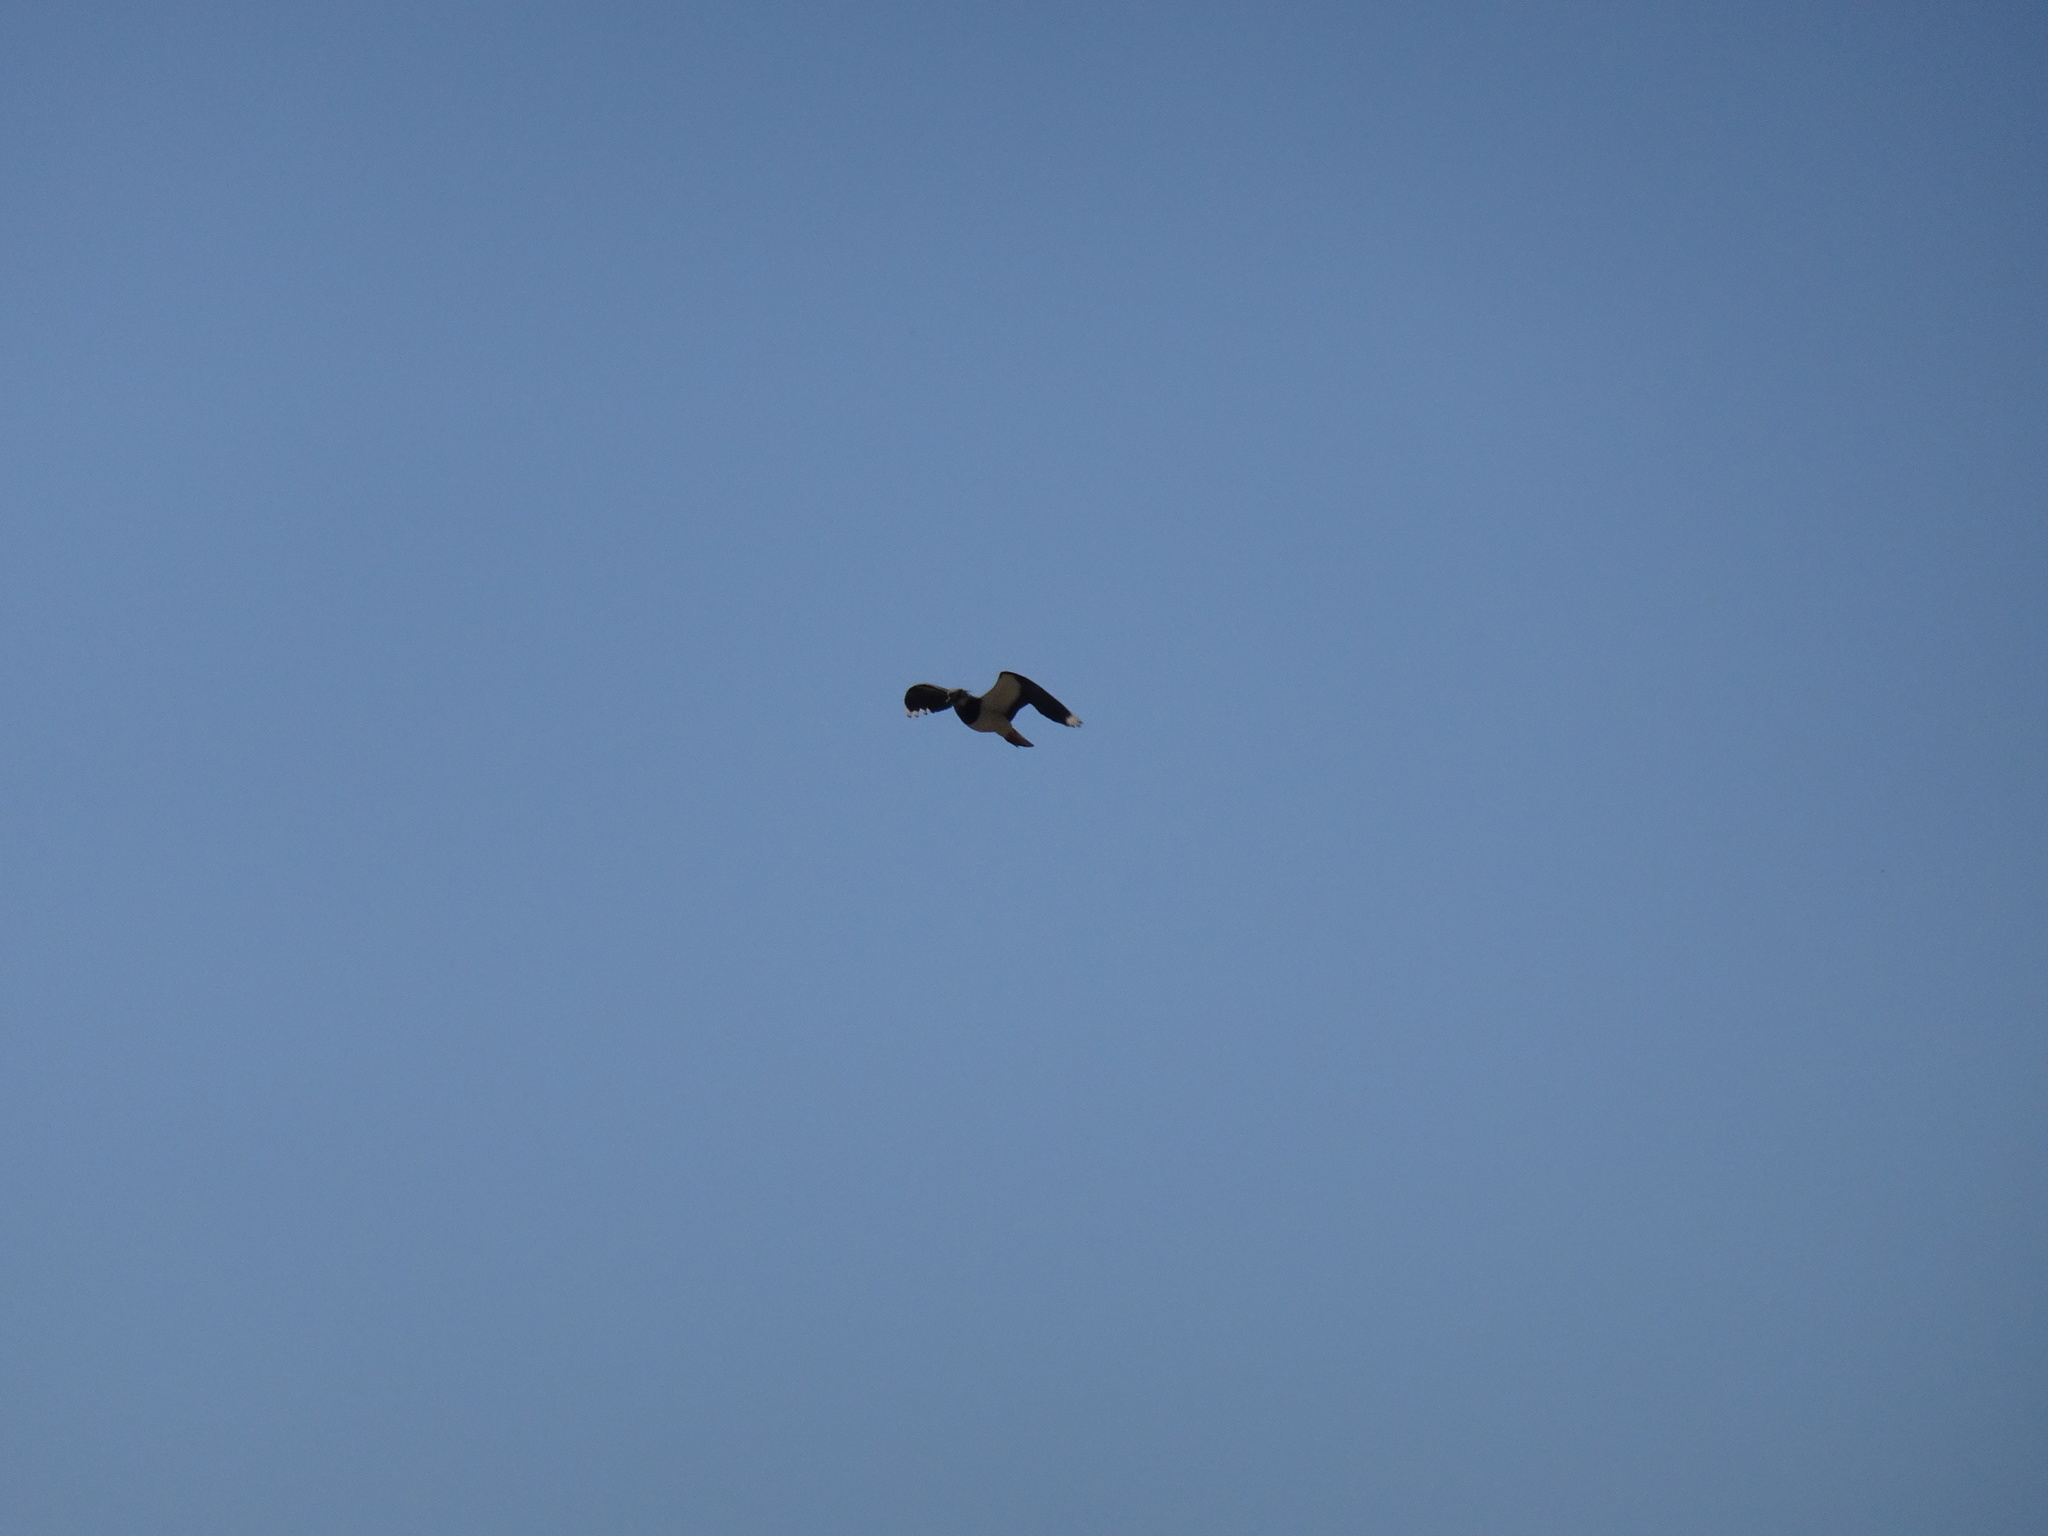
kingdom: Animalia
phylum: Chordata
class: Aves
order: Charadriiformes
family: Charadriidae
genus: Vanellus
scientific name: Vanellus vanellus
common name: Northern lapwing
